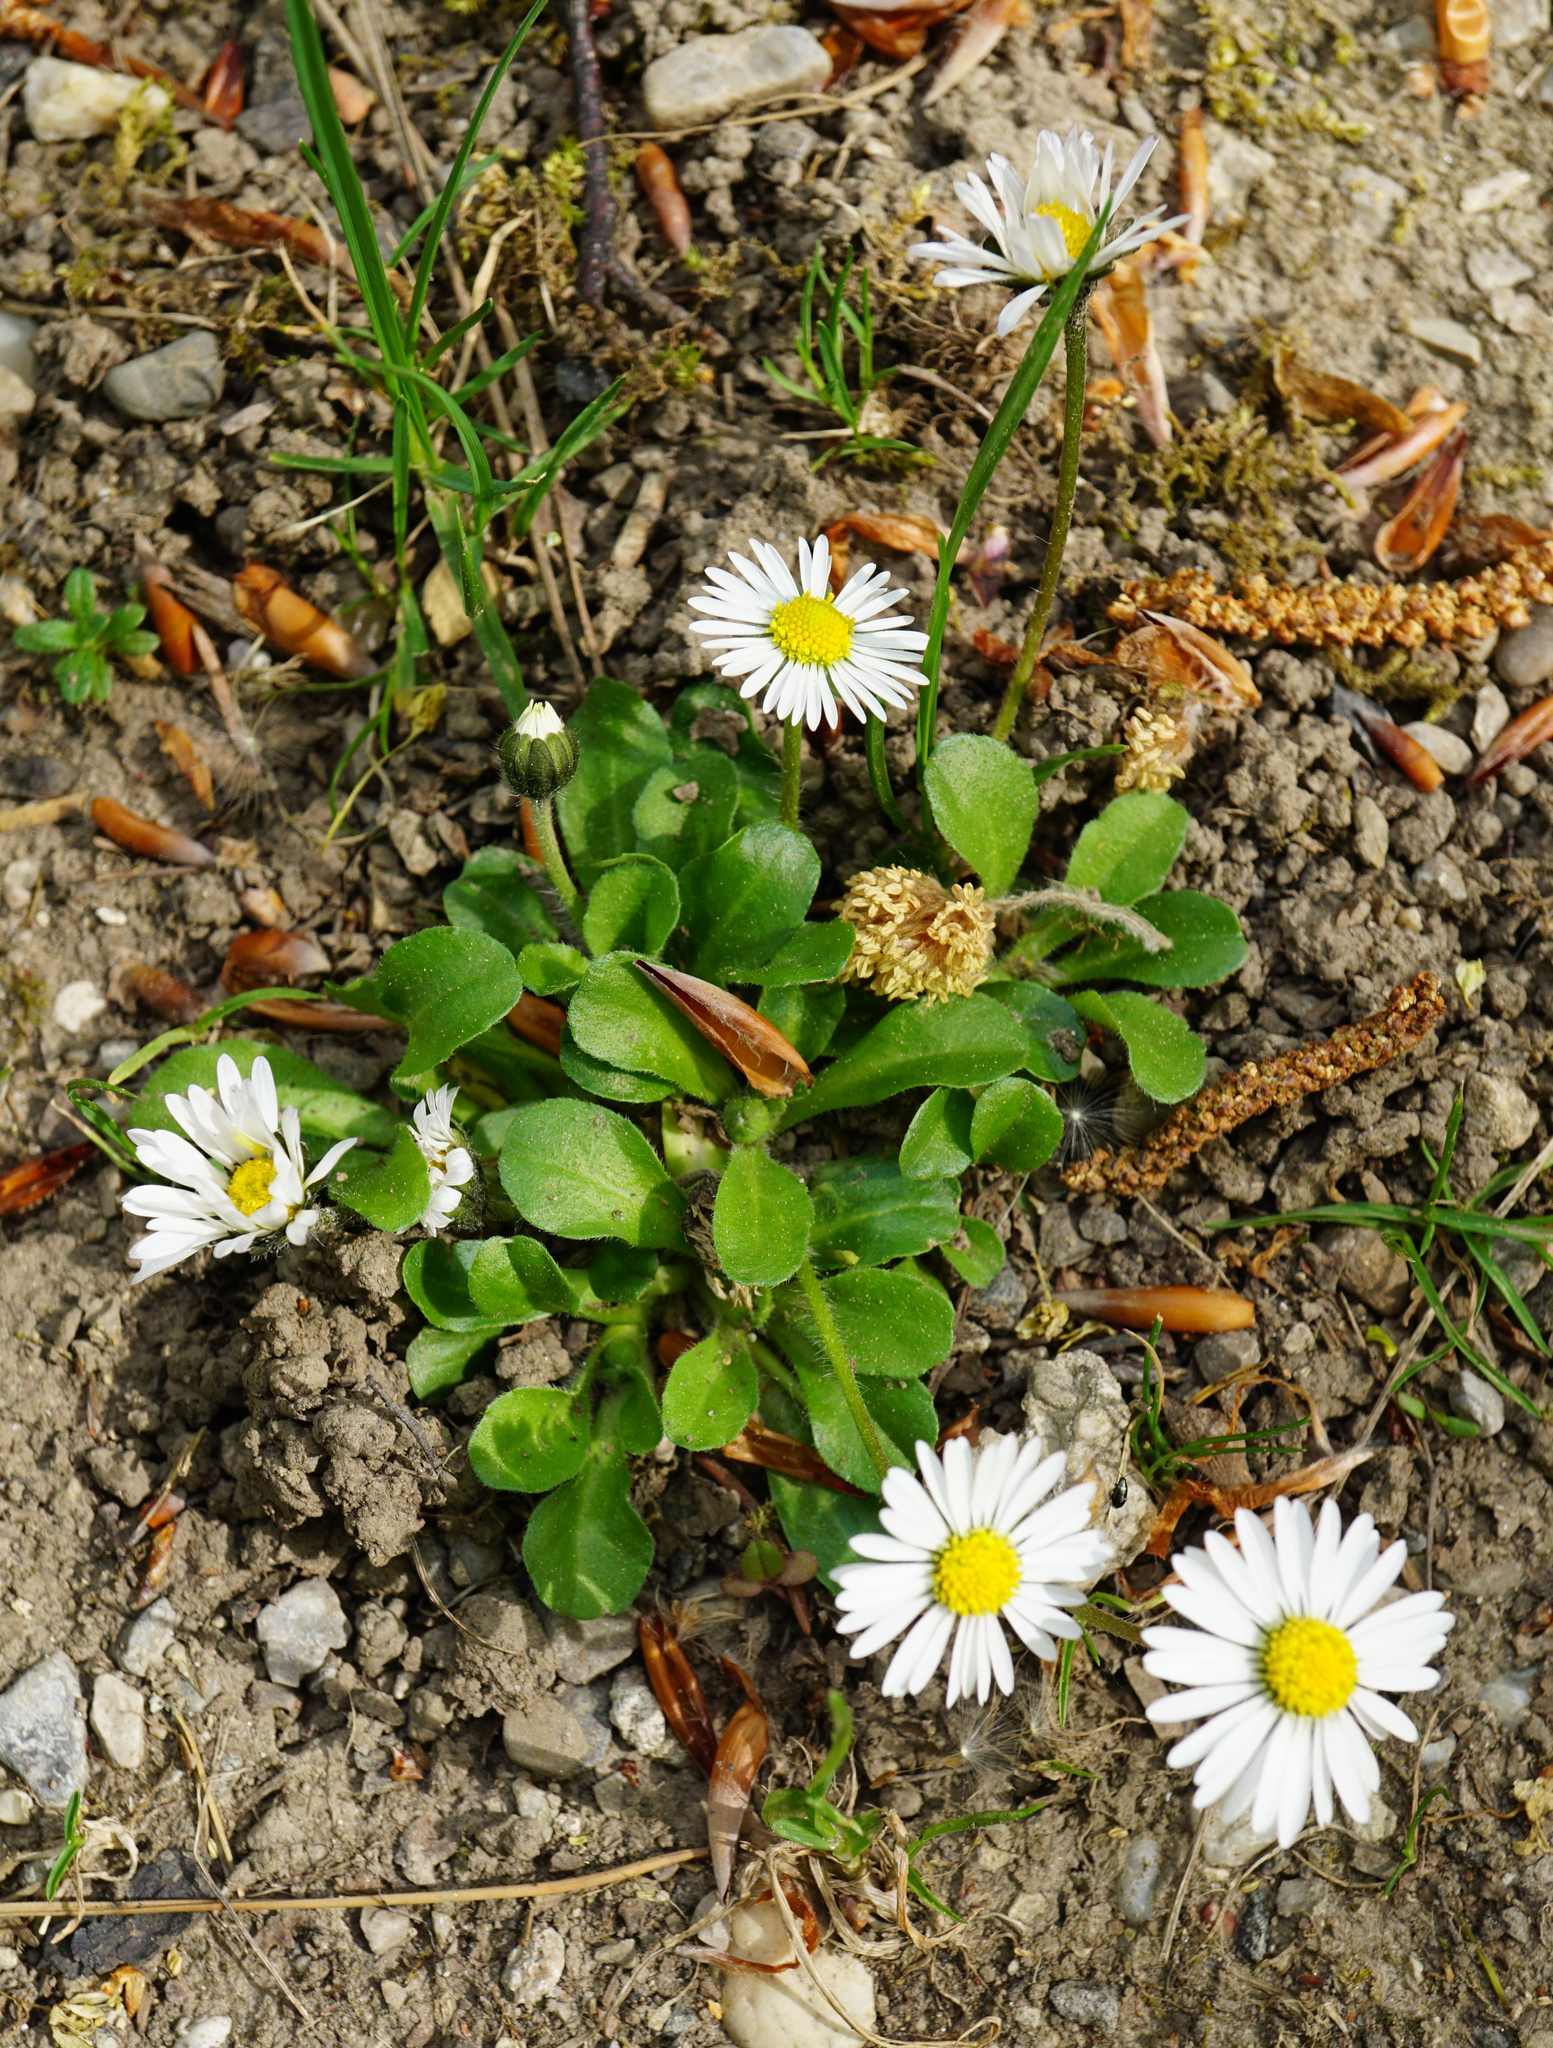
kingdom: Plantae
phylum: Tracheophyta
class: Magnoliopsida
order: Asterales
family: Asteraceae
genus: Bellis
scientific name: Bellis perennis
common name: Lawndaisy
